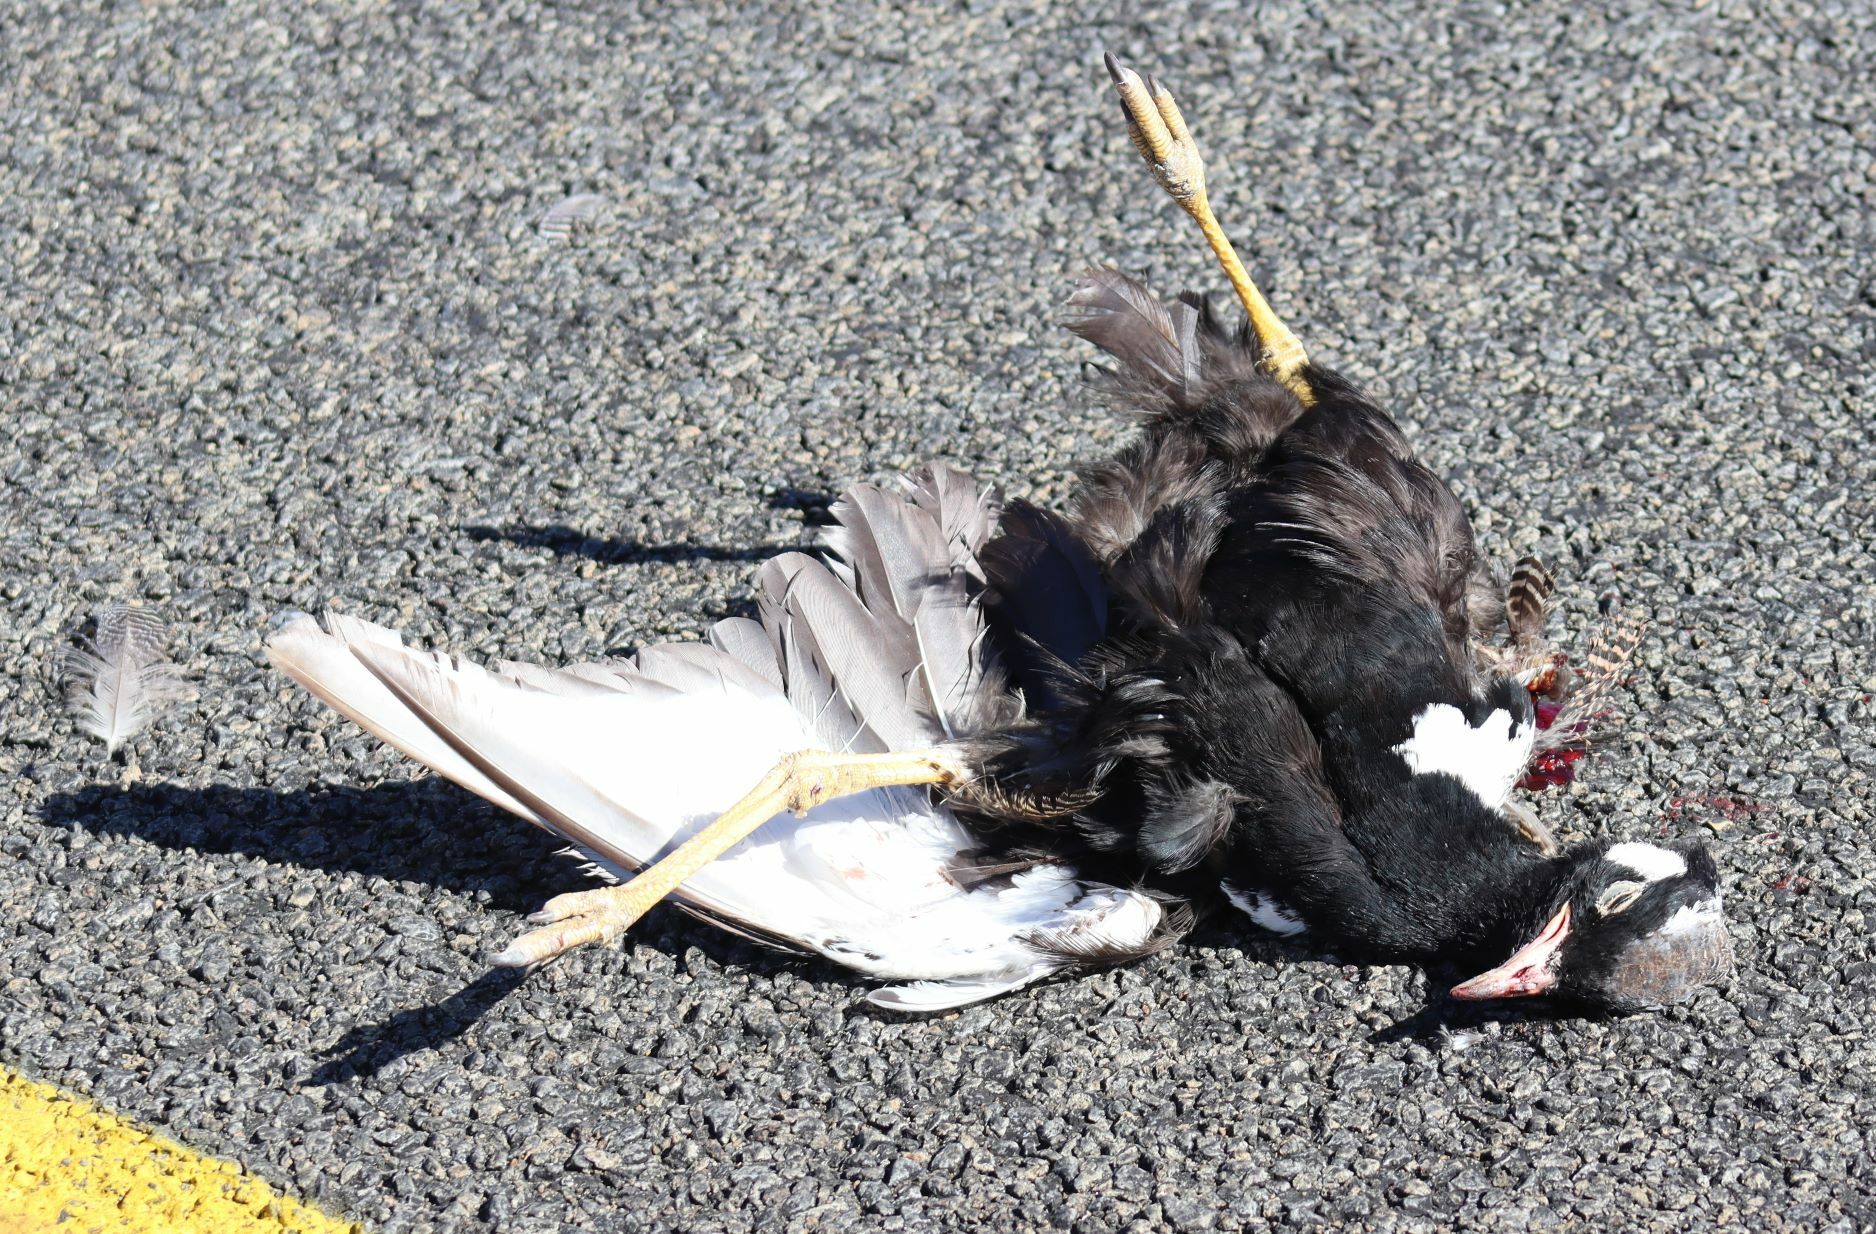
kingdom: Animalia
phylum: Chordata
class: Aves
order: Otidiformes
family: Otididae
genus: Afrotis
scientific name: Afrotis afraoides
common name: Northern black korhaan
